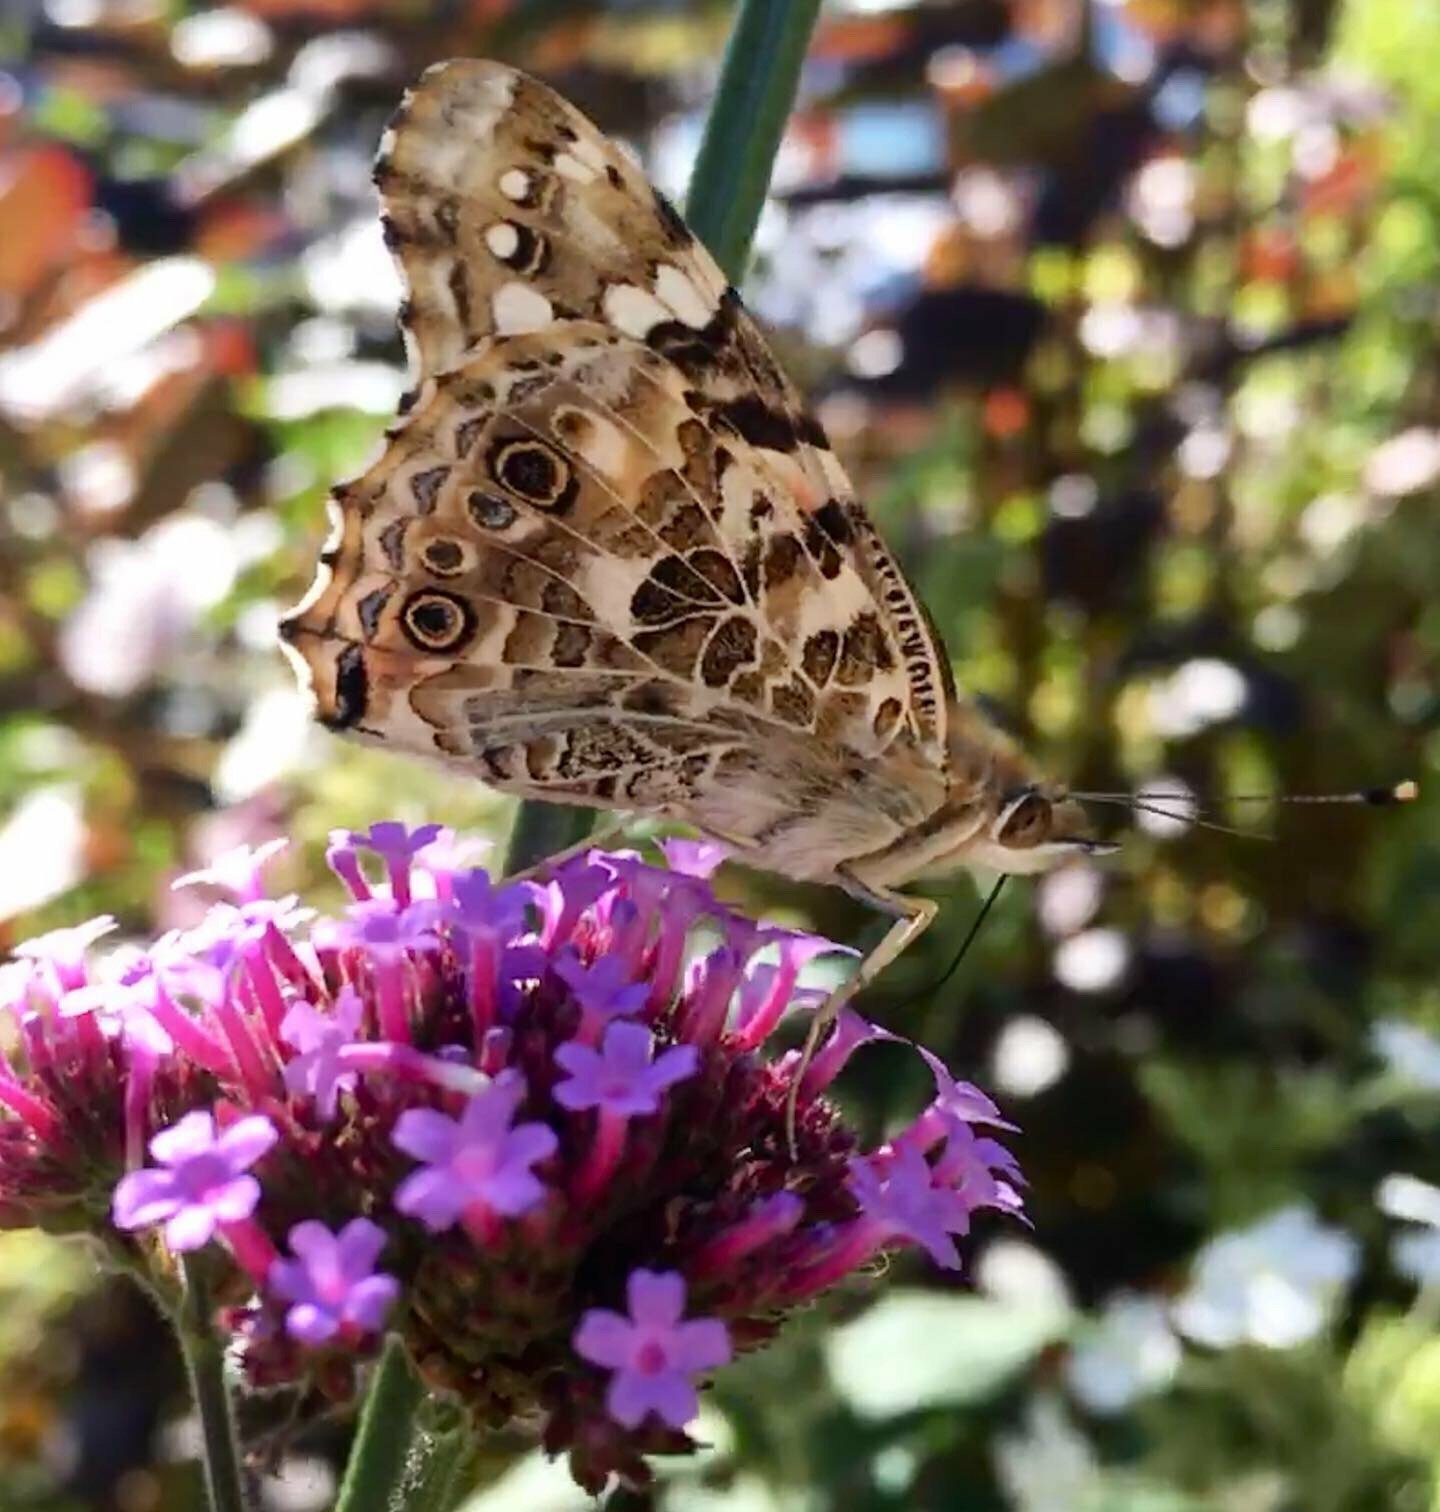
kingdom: Animalia
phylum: Arthropoda
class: Insecta
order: Lepidoptera
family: Nymphalidae
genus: Vanessa
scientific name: Vanessa cardui
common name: Painted lady
